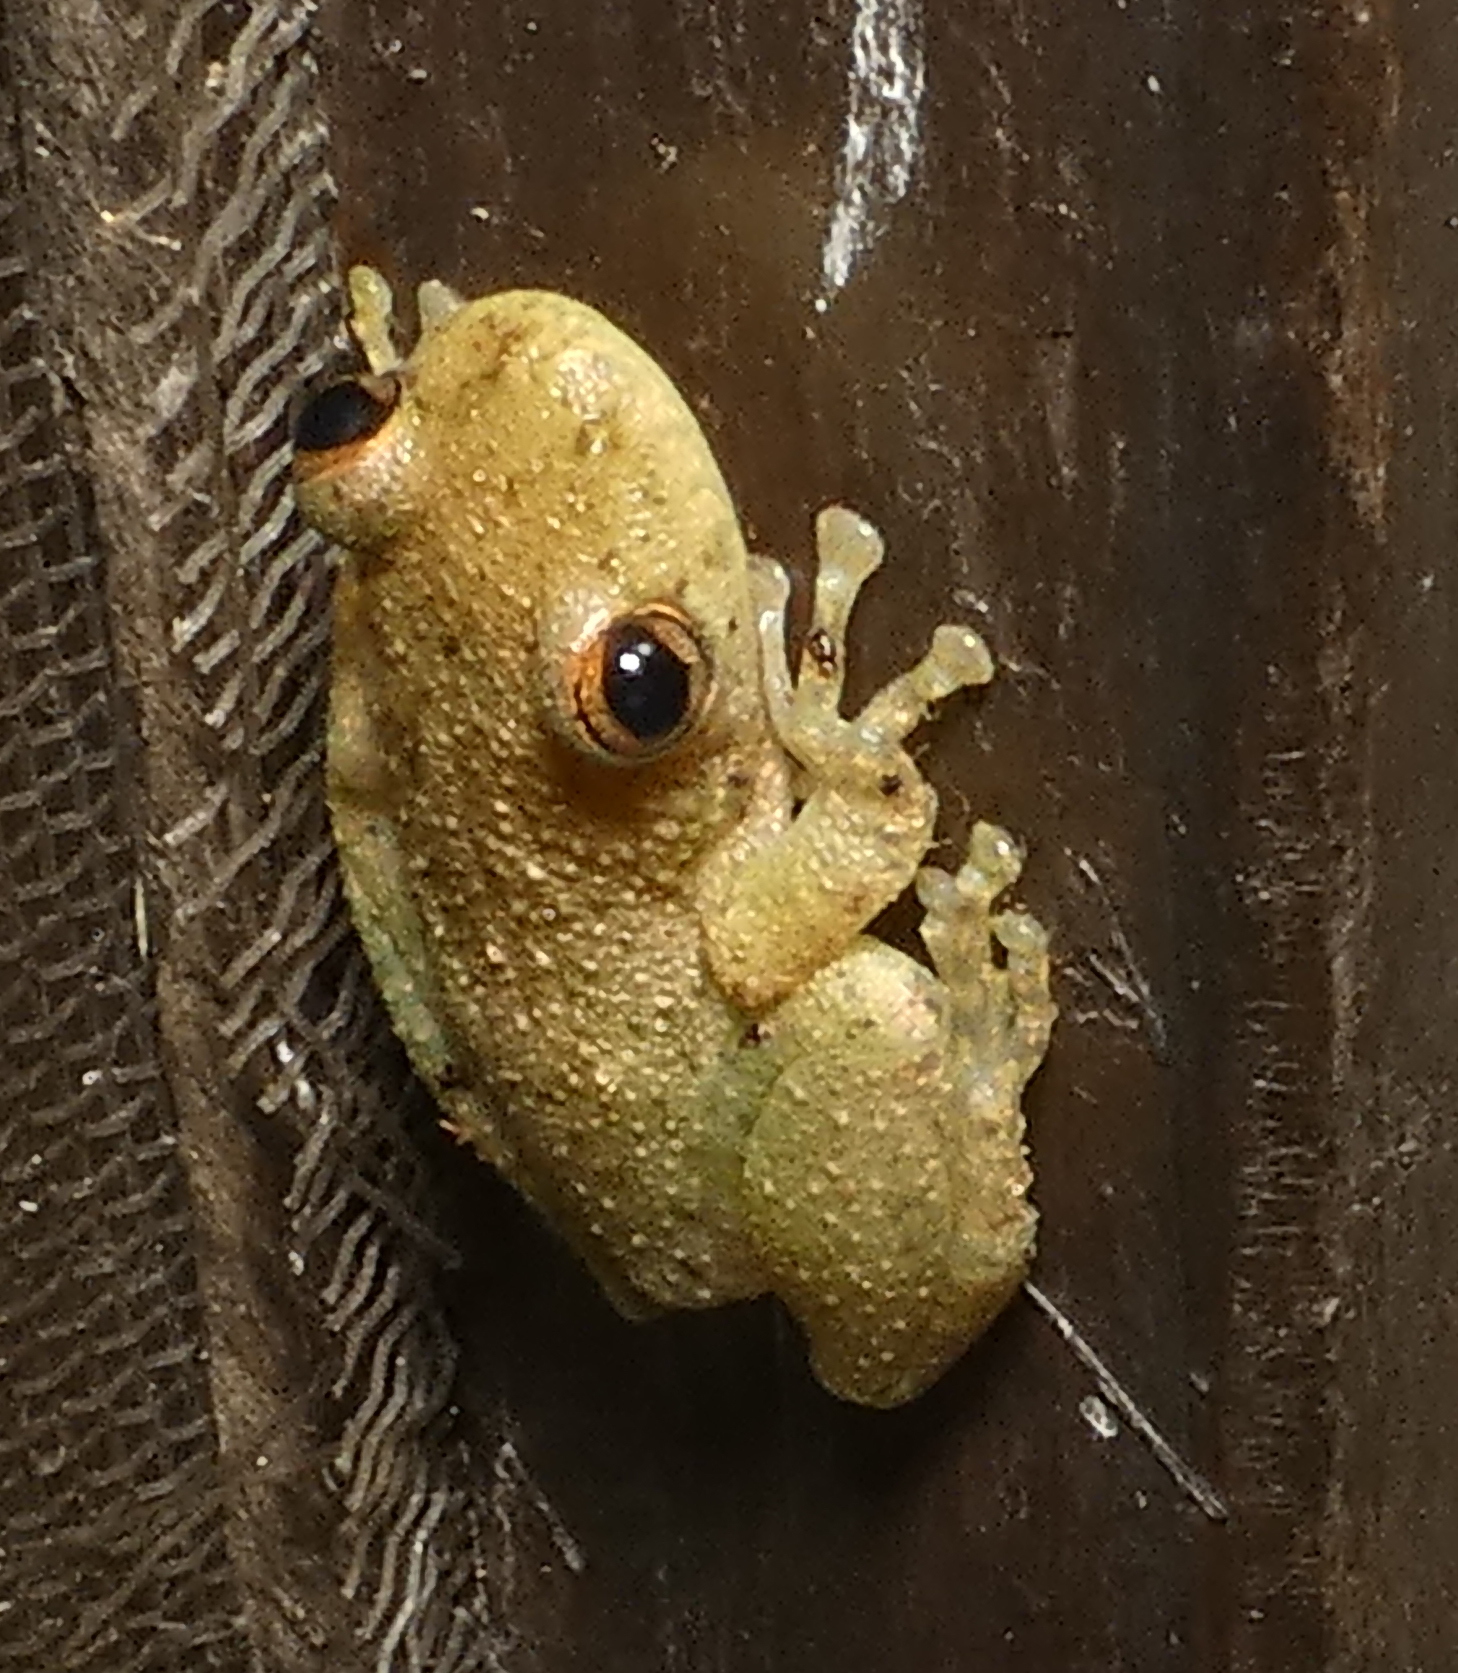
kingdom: Animalia
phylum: Chordata
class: Amphibia
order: Anura
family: Hylidae
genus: Scinax
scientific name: Scinax x-signatus
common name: Venezuela snouted treefrog
